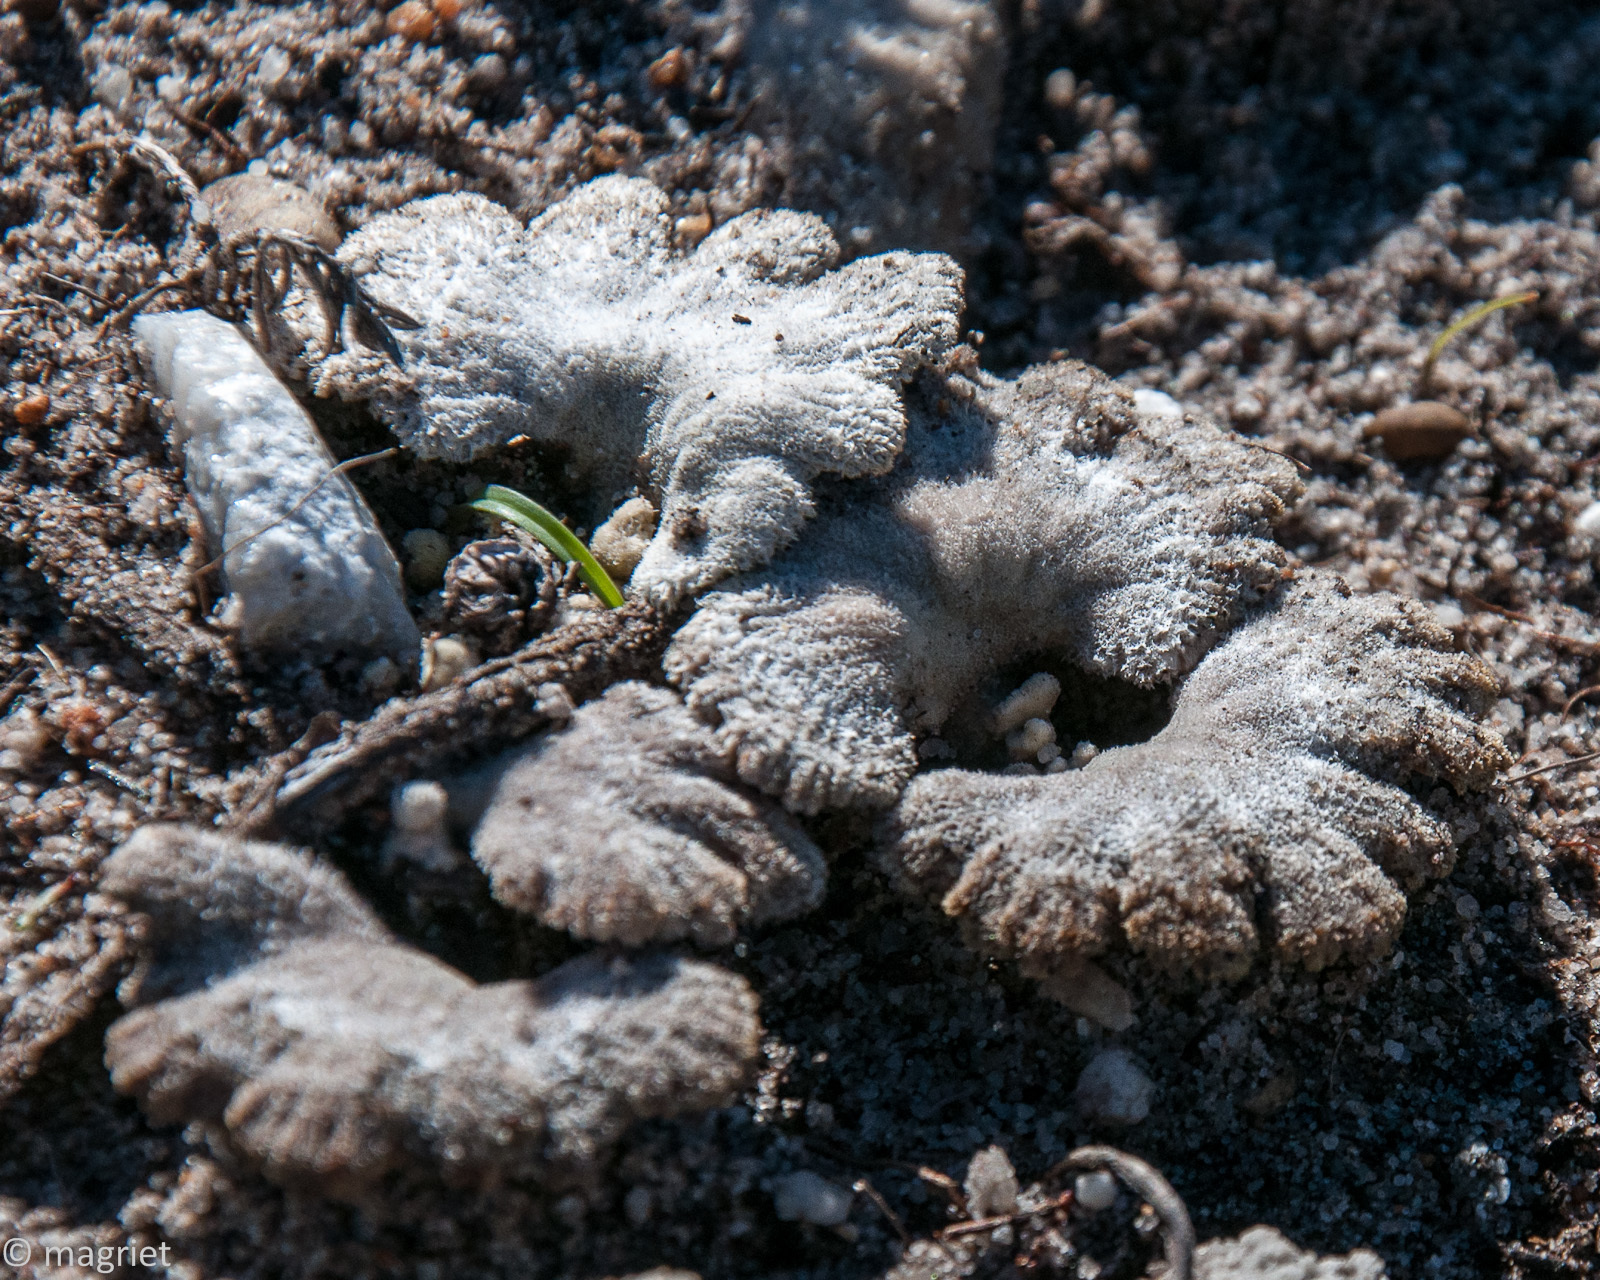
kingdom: Fungi
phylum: Basidiomycota
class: Agaricomycetes
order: Agaricales
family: Schizophyllaceae
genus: Schizophyllum
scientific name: Schizophyllum commune
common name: Common porecrust
